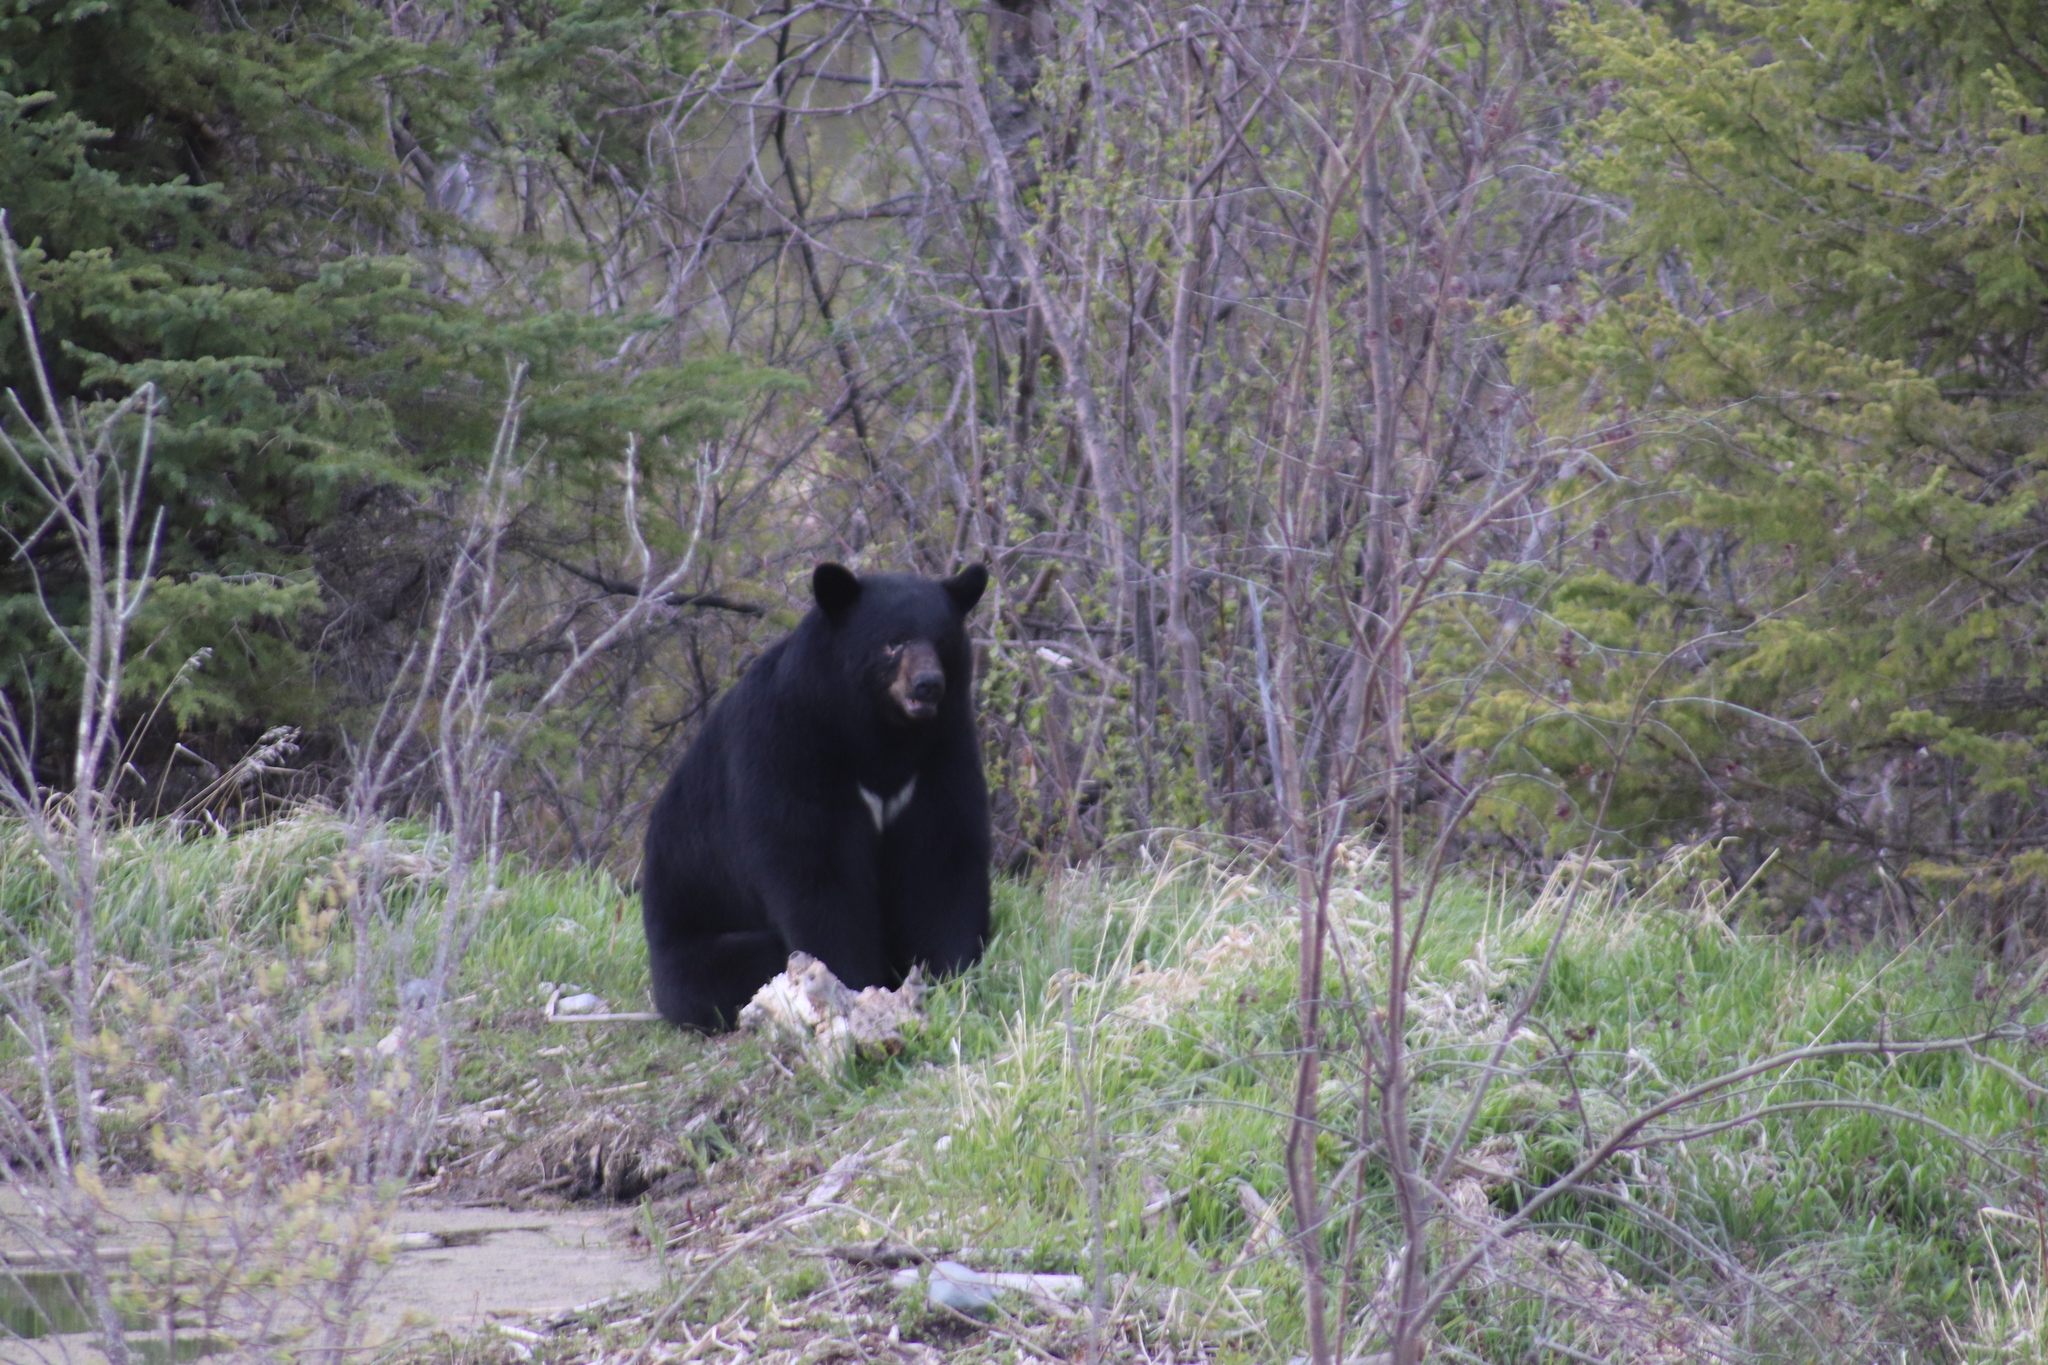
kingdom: Animalia
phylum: Chordata
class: Mammalia
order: Carnivora
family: Ursidae
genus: Ursus
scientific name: Ursus americanus
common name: American black bear
